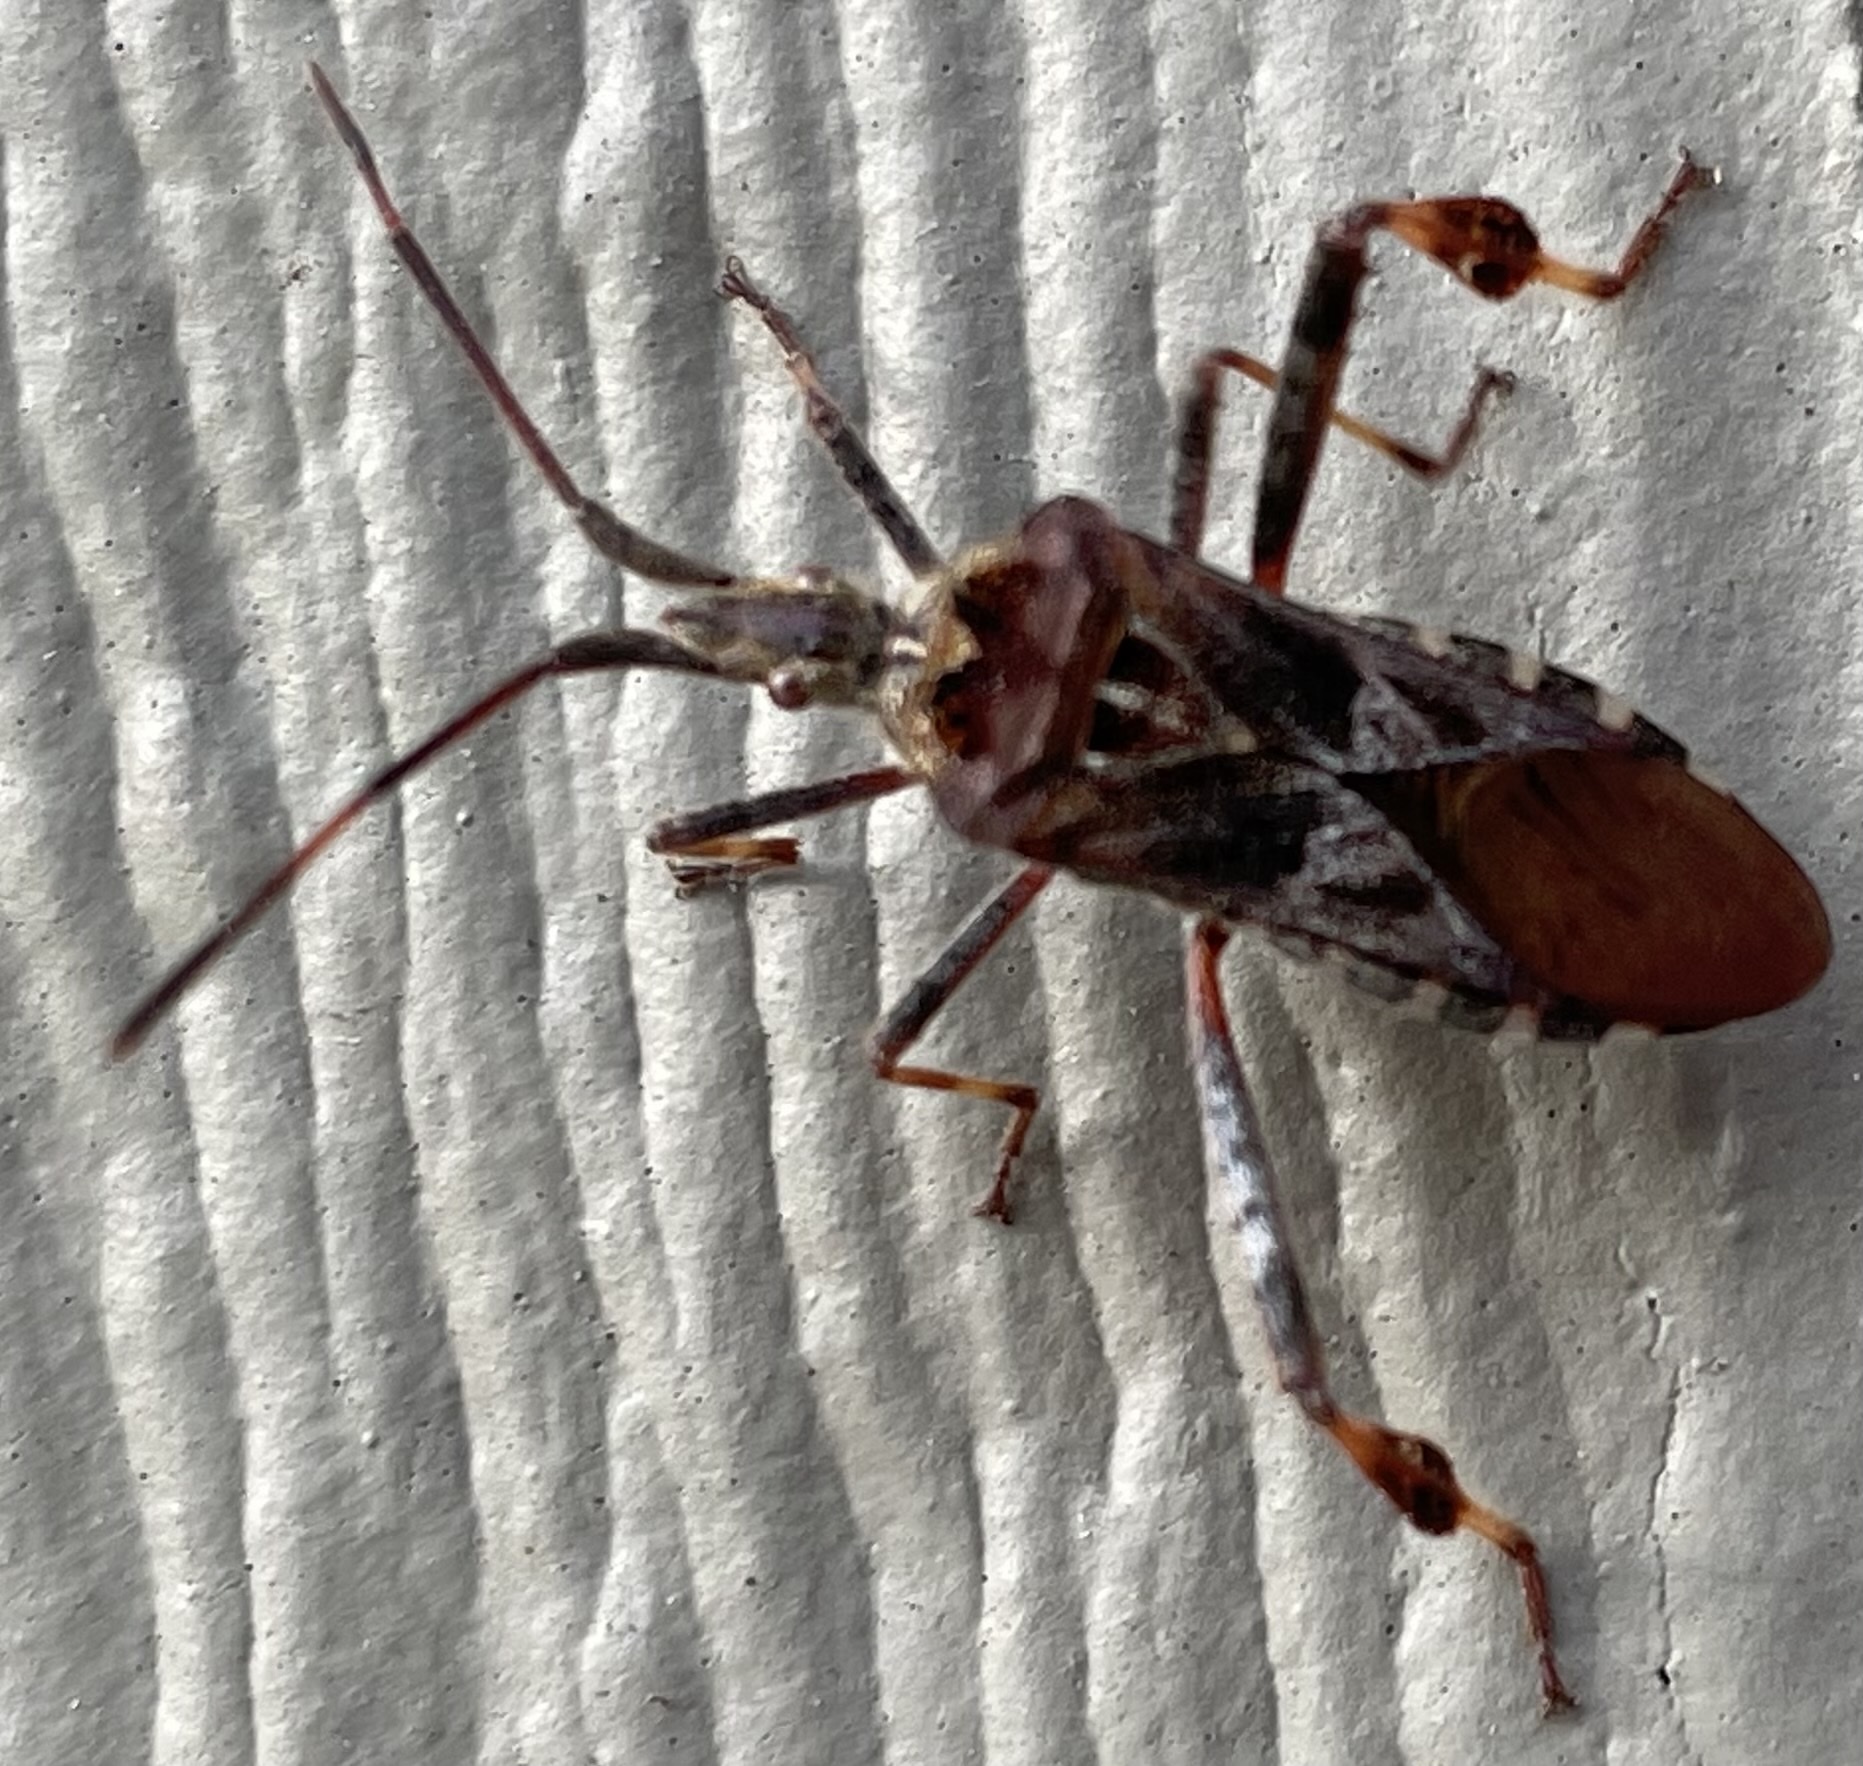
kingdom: Animalia
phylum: Arthropoda
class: Insecta
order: Hemiptera
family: Coreidae
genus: Leptoglossus
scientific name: Leptoglossus occidentalis
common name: Western conifer-seed bug
